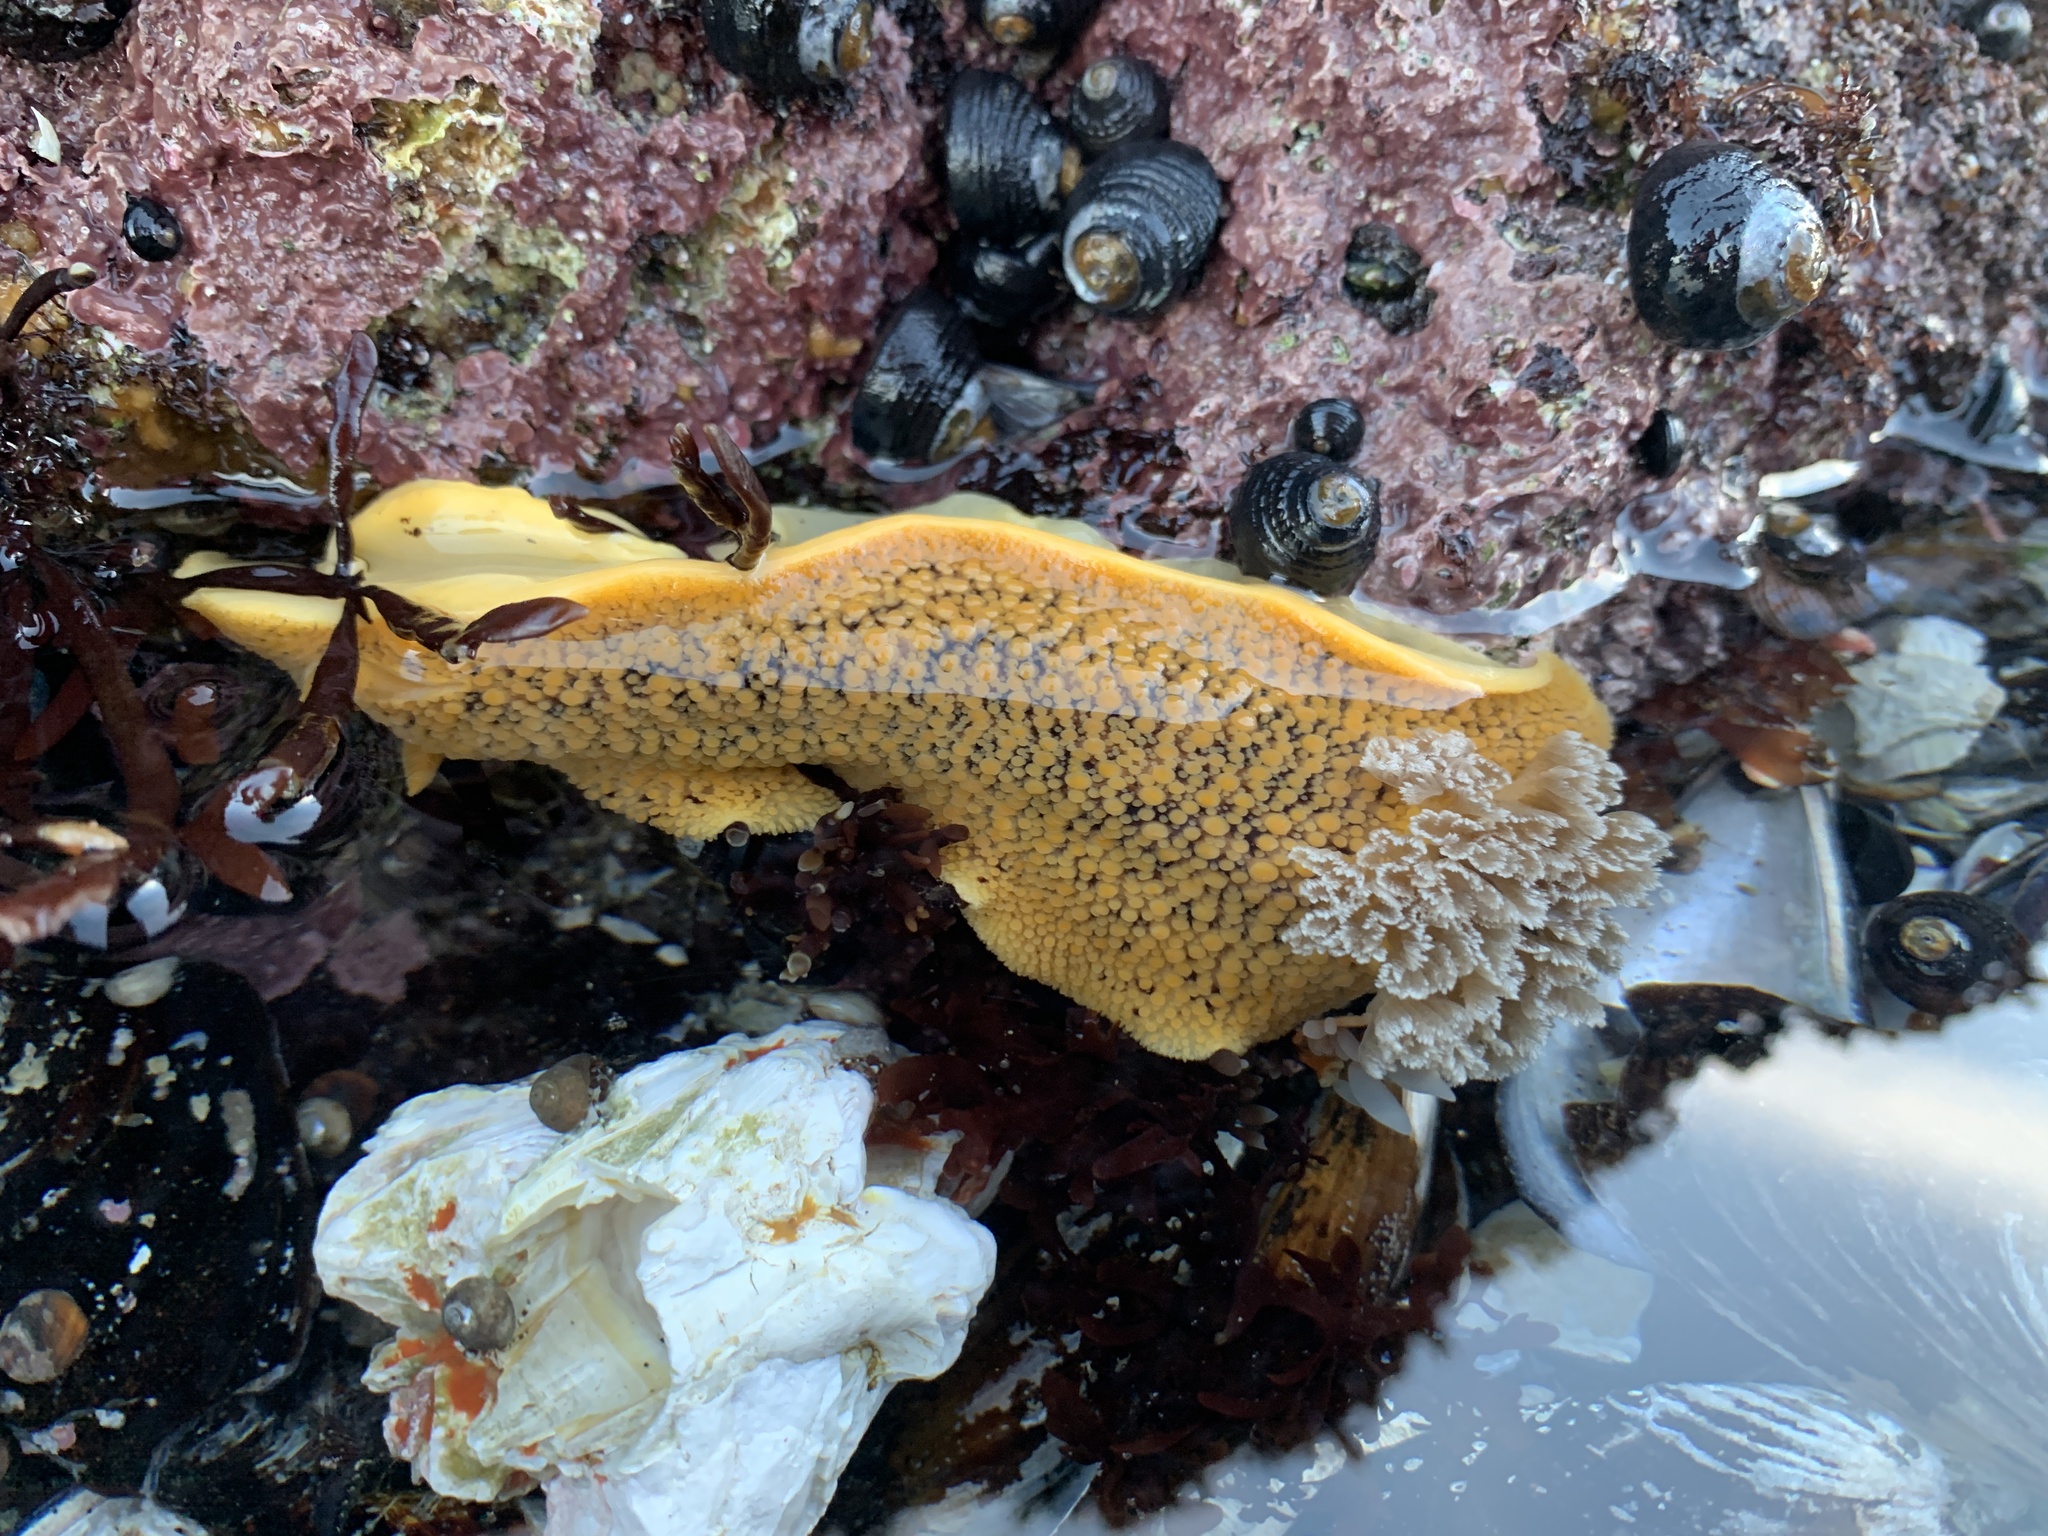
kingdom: Animalia
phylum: Mollusca
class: Gastropoda
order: Nudibranchia
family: Discodorididae
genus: Peltodoris
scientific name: Peltodoris nobilis
